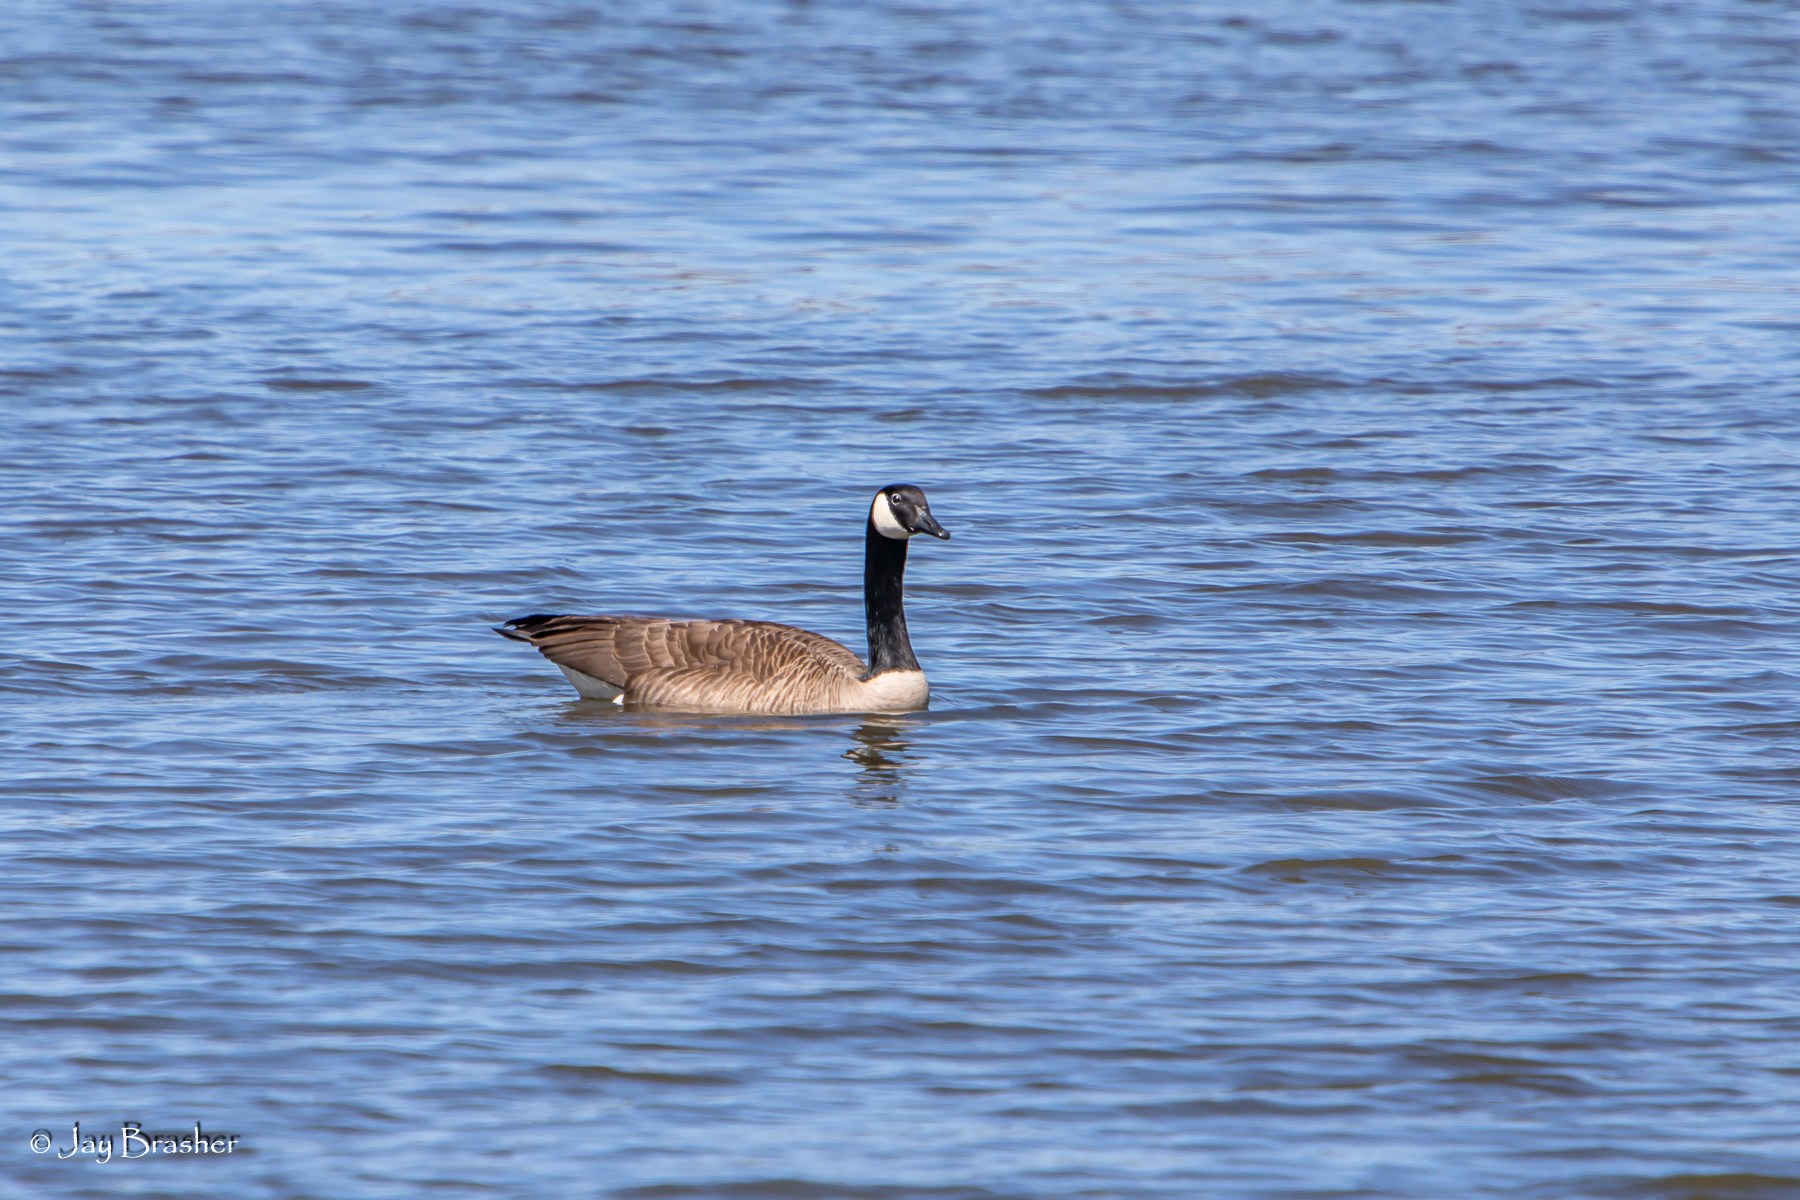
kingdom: Animalia
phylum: Chordata
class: Aves
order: Anseriformes
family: Anatidae
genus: Branta
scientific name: Branta canadensis
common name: Canada goose
